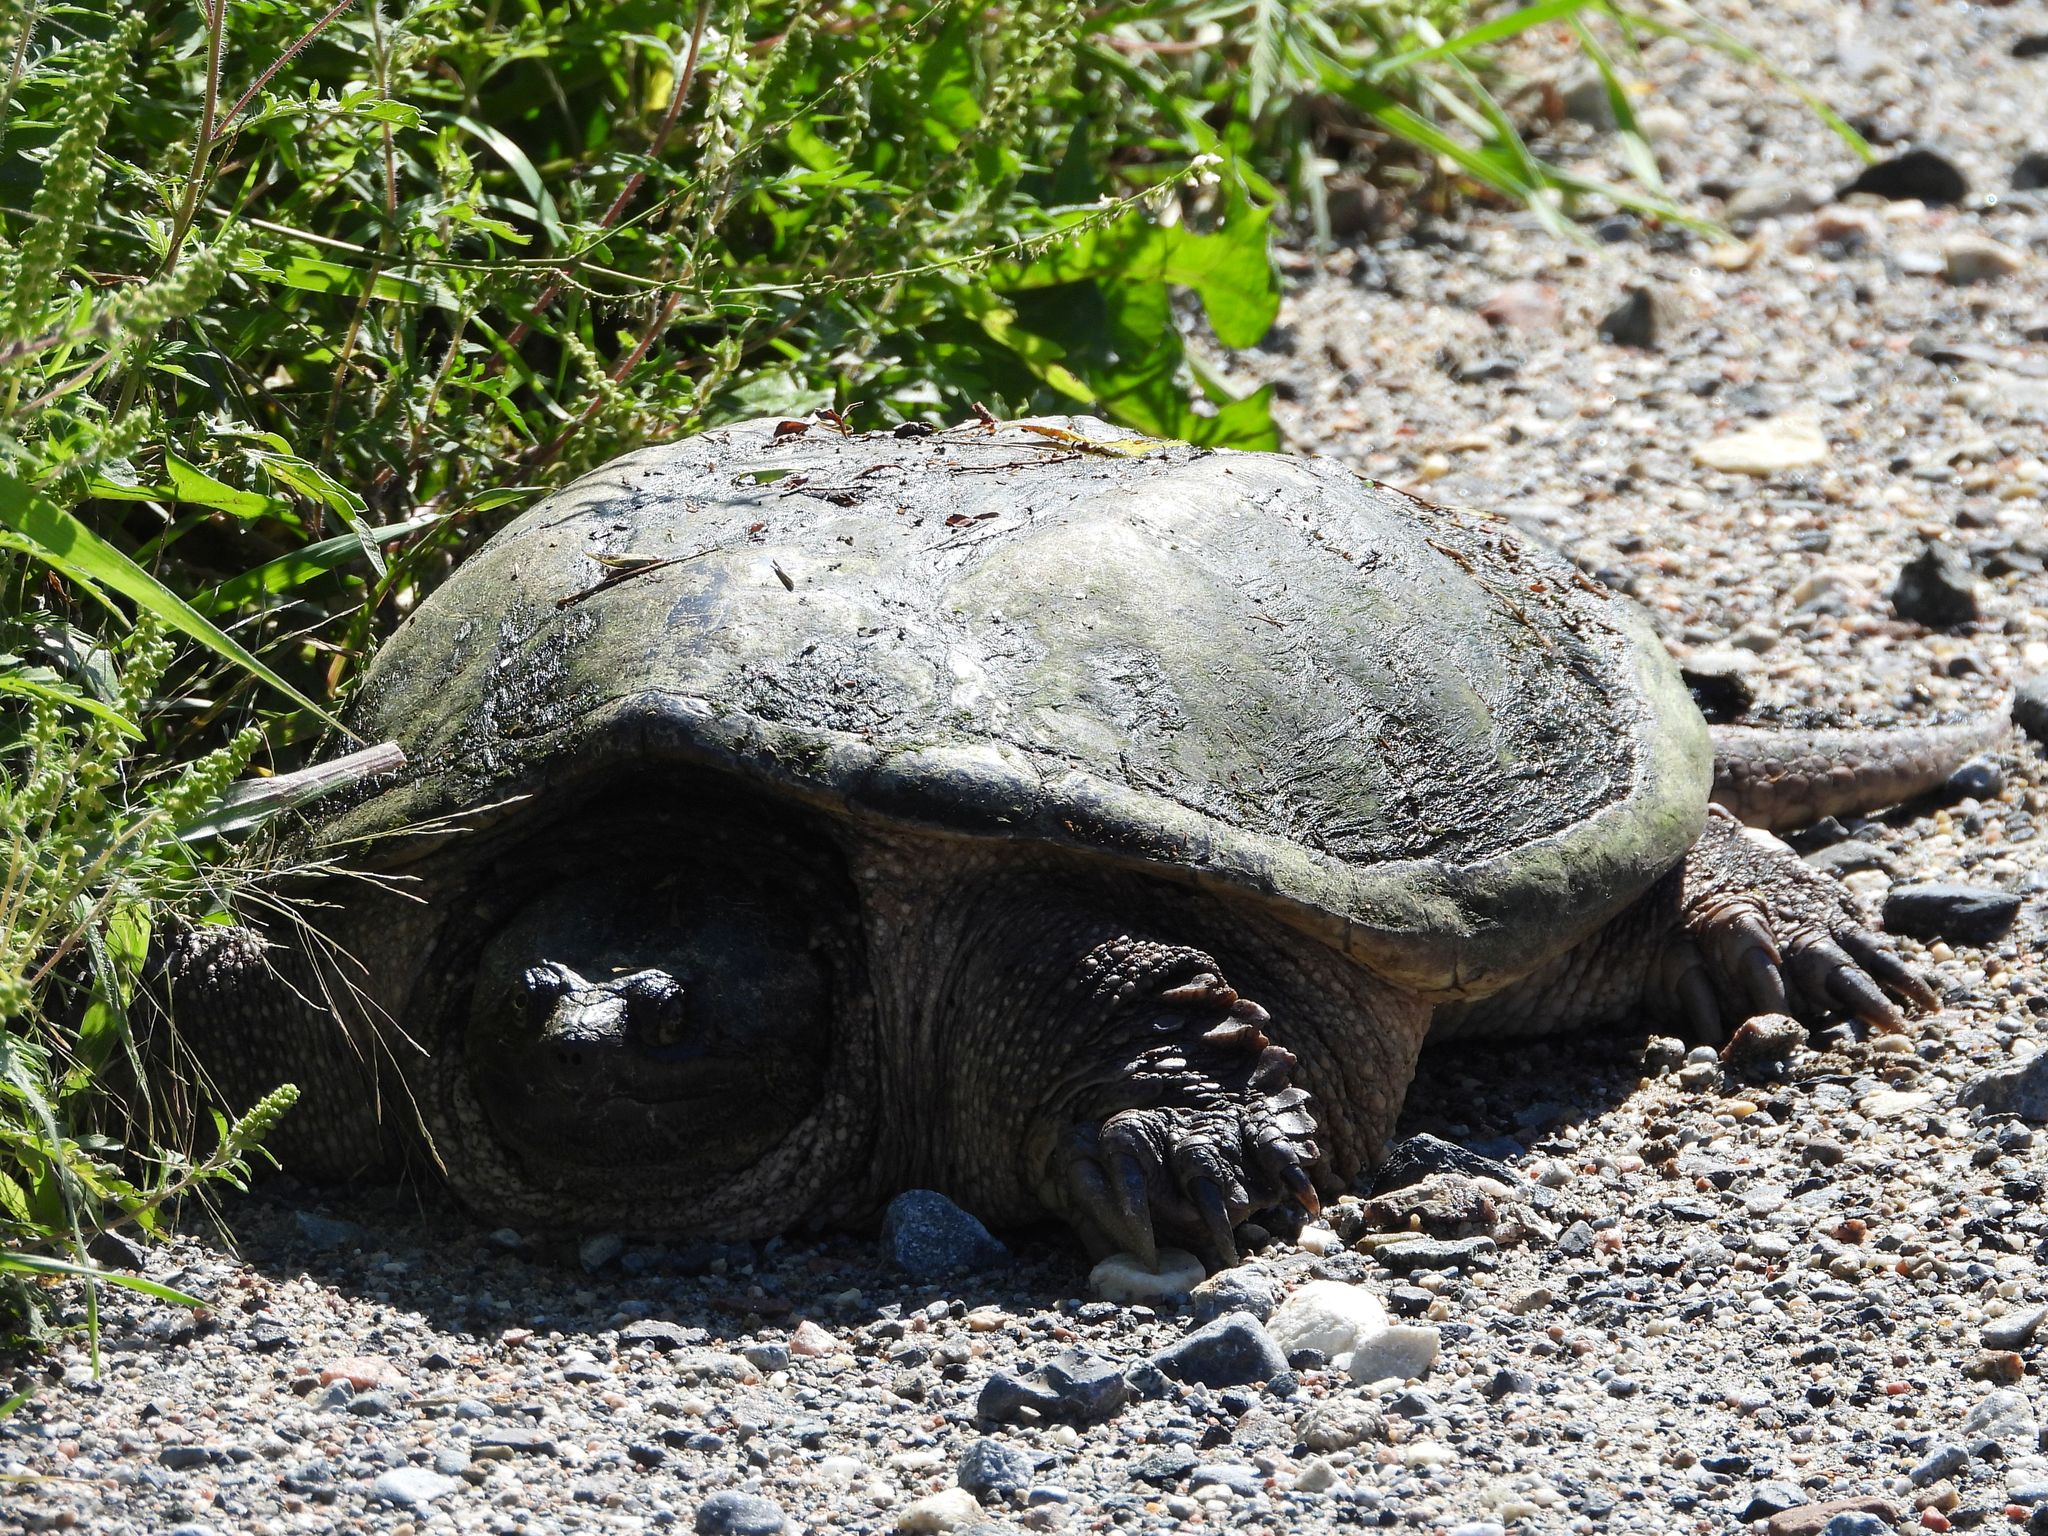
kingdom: Animalia
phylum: Chordata
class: Testudines
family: Chelydridae
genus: Chelydra
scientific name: Chelydra serpentina
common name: Common snapping turtle
